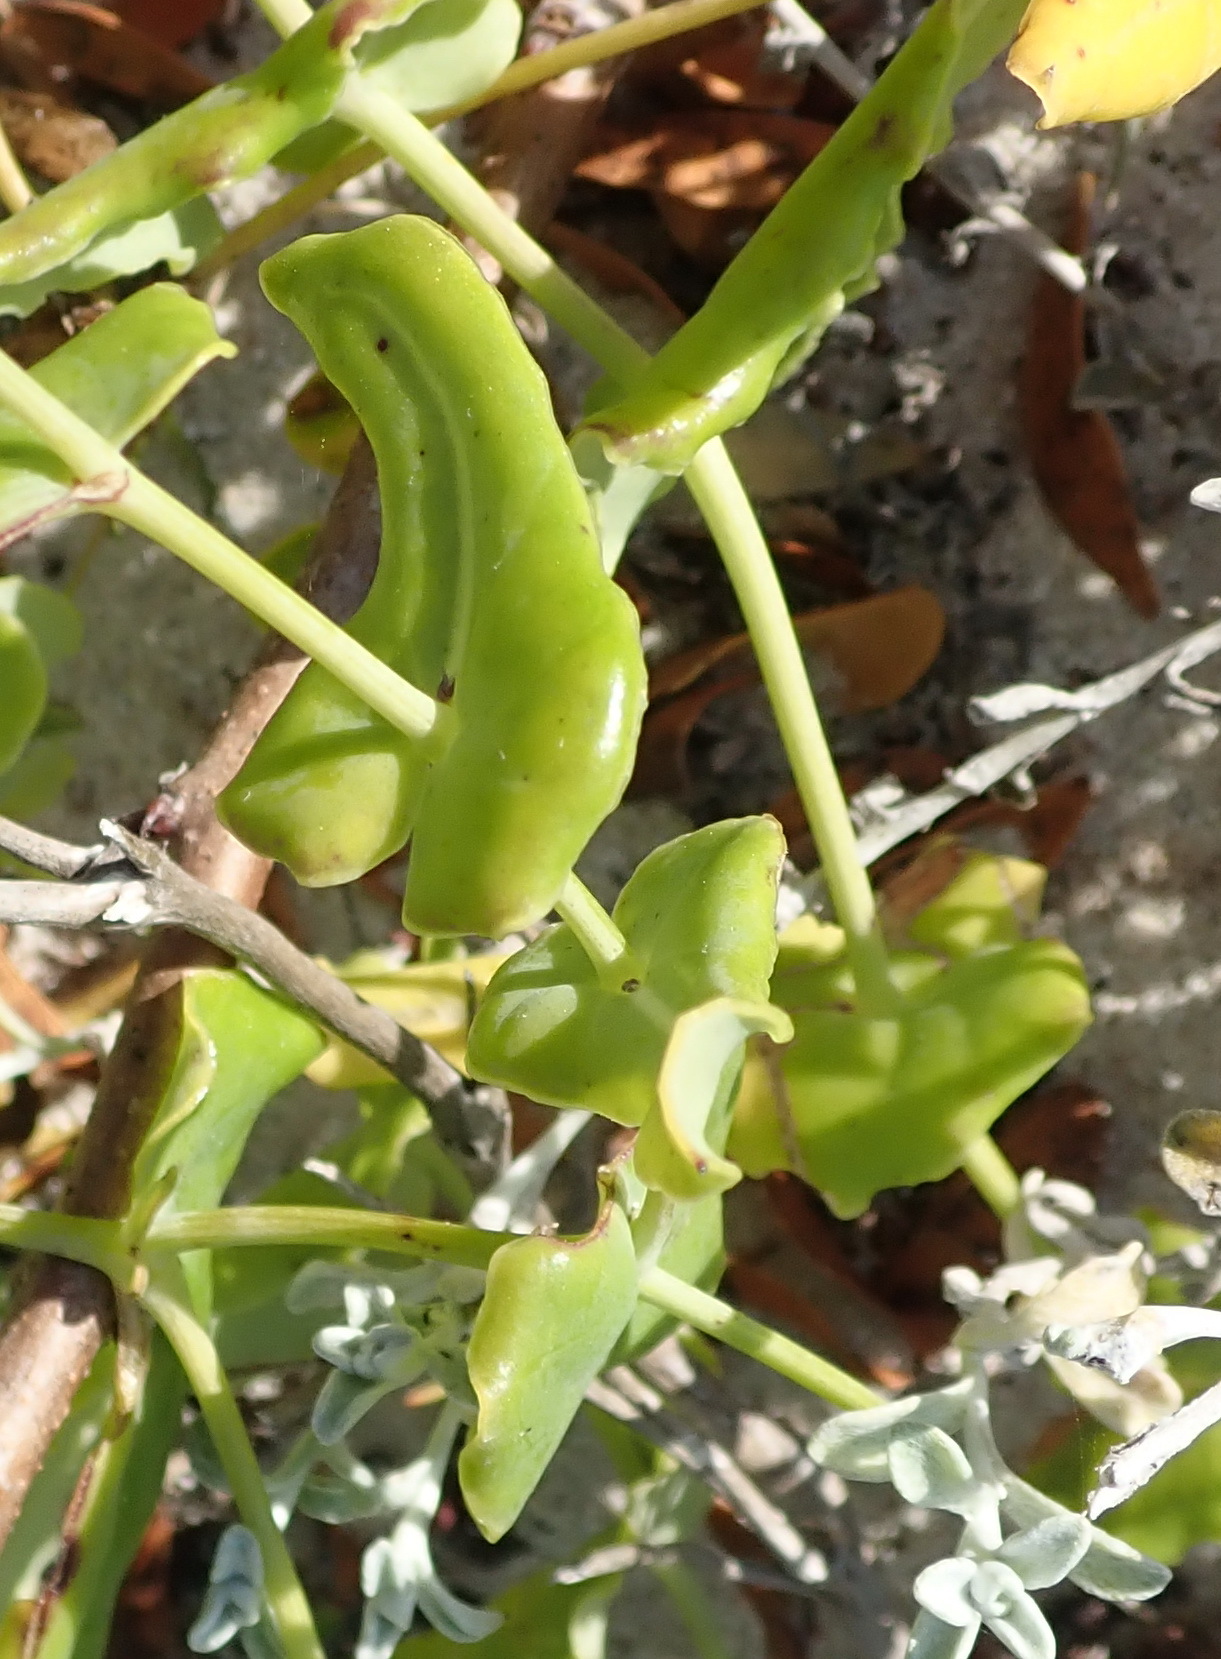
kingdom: Plantae
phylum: Tracheophyta
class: Magnoliopsida
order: Asterales
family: Asteraceae
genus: Othonna
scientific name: Othonna undulosa
